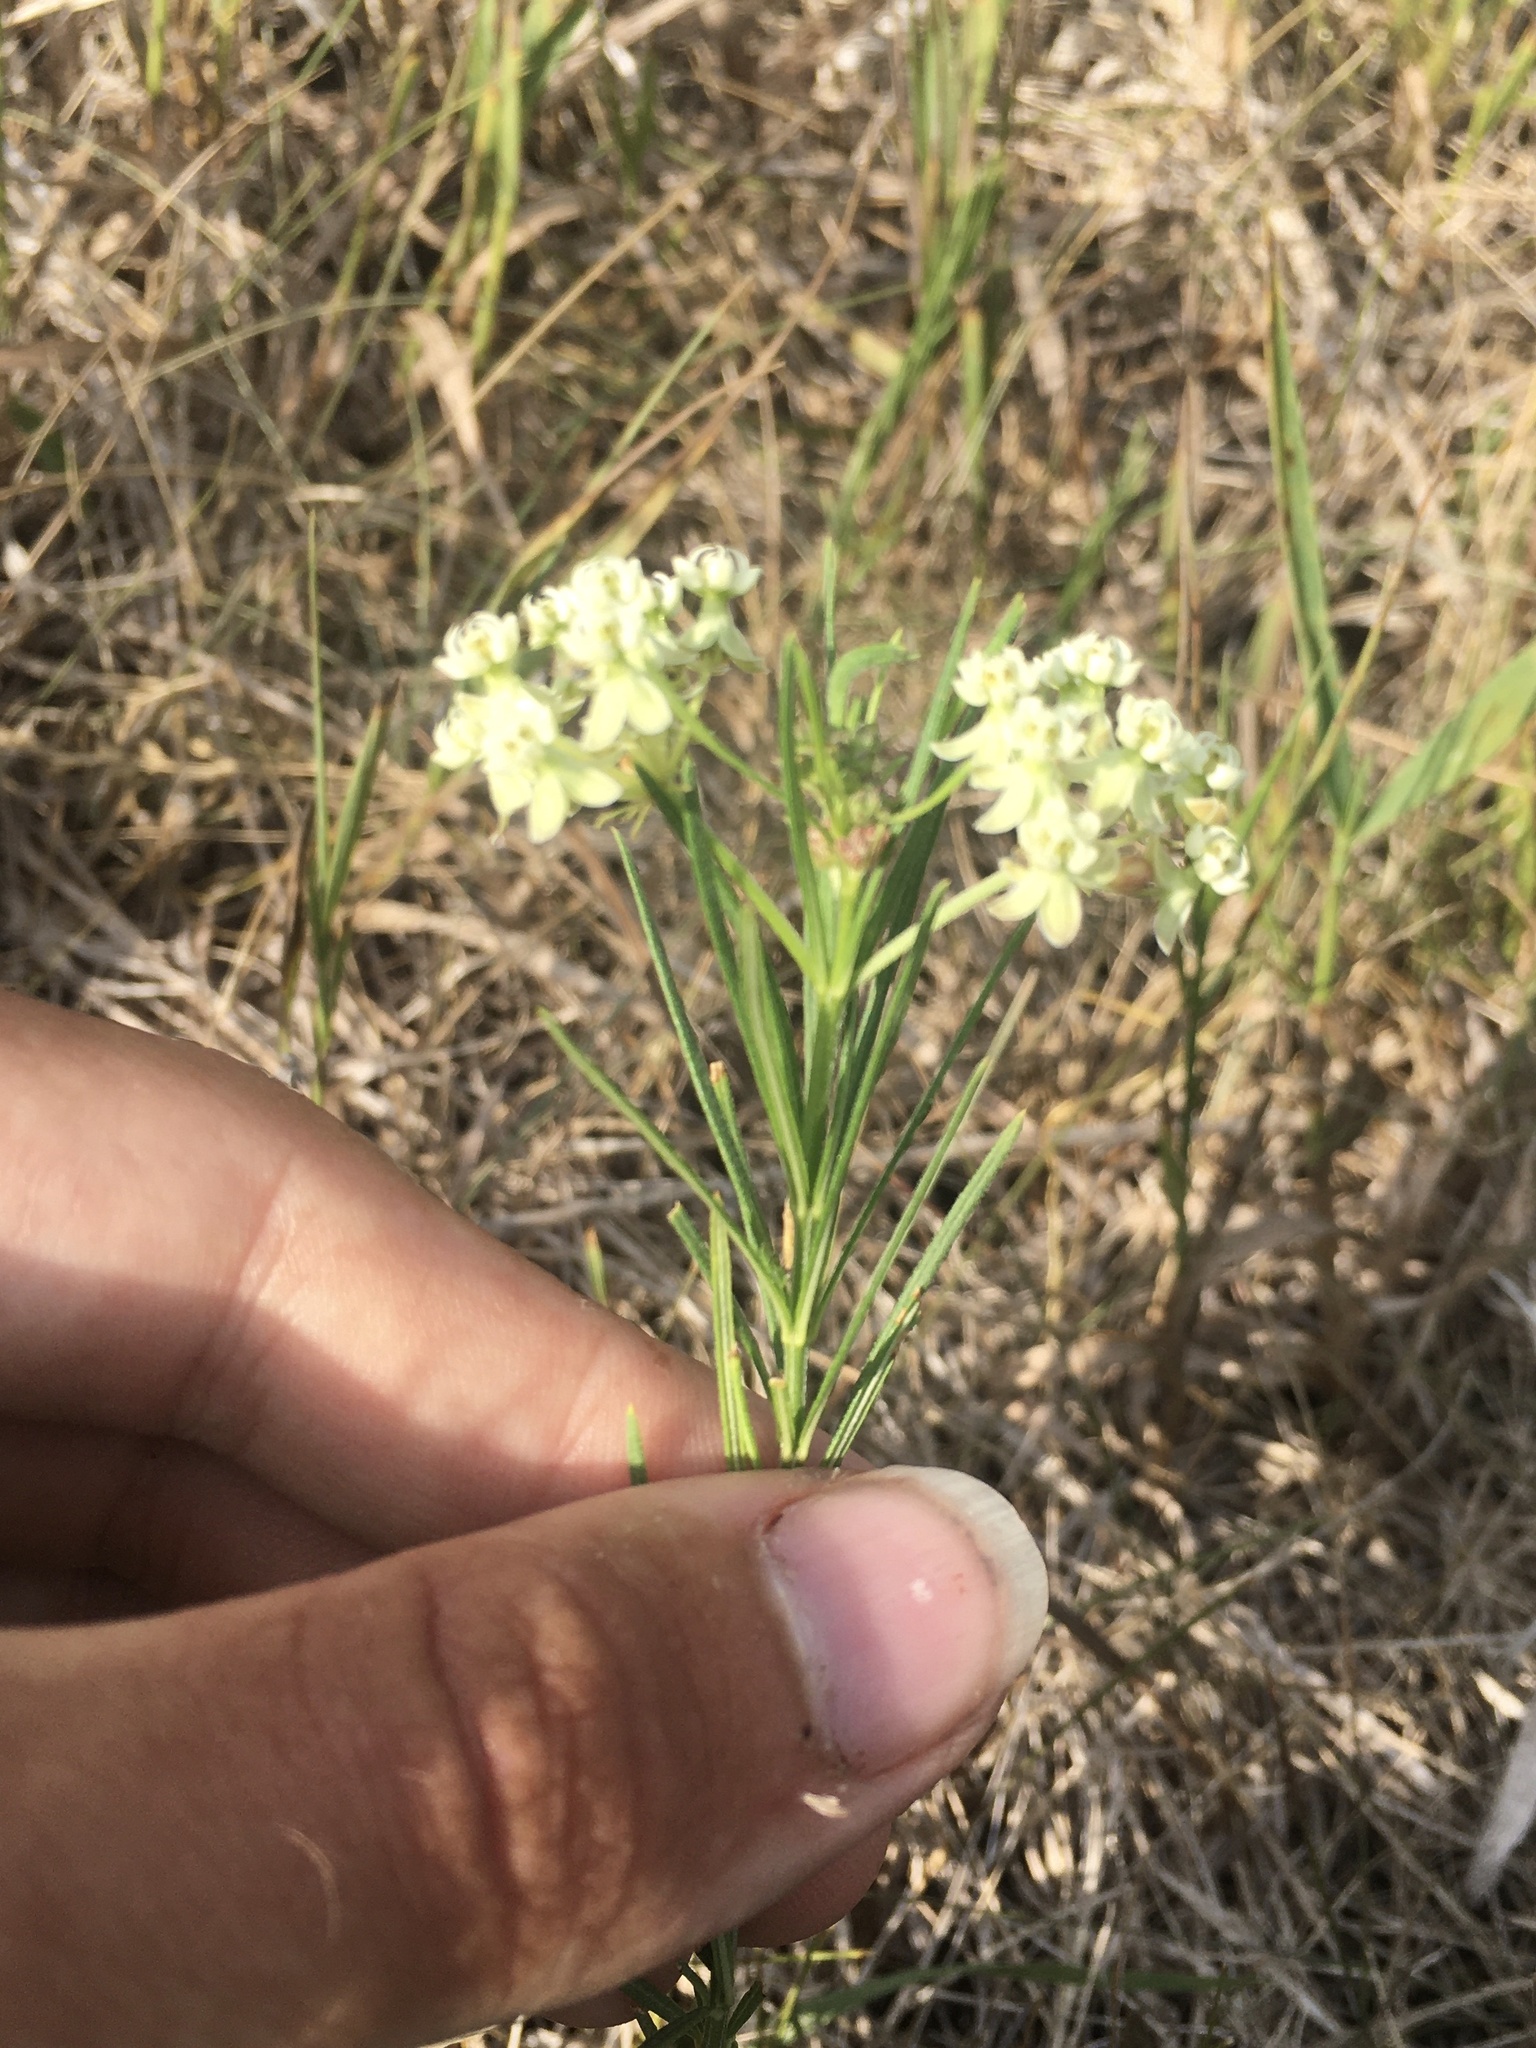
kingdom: Plantae
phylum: Tracheophyta
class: Magnoliopsida
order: Gentianales
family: Apocynaceae
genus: Asclepias
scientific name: Asclepias verticillata
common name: Eastern whorled milkweed
